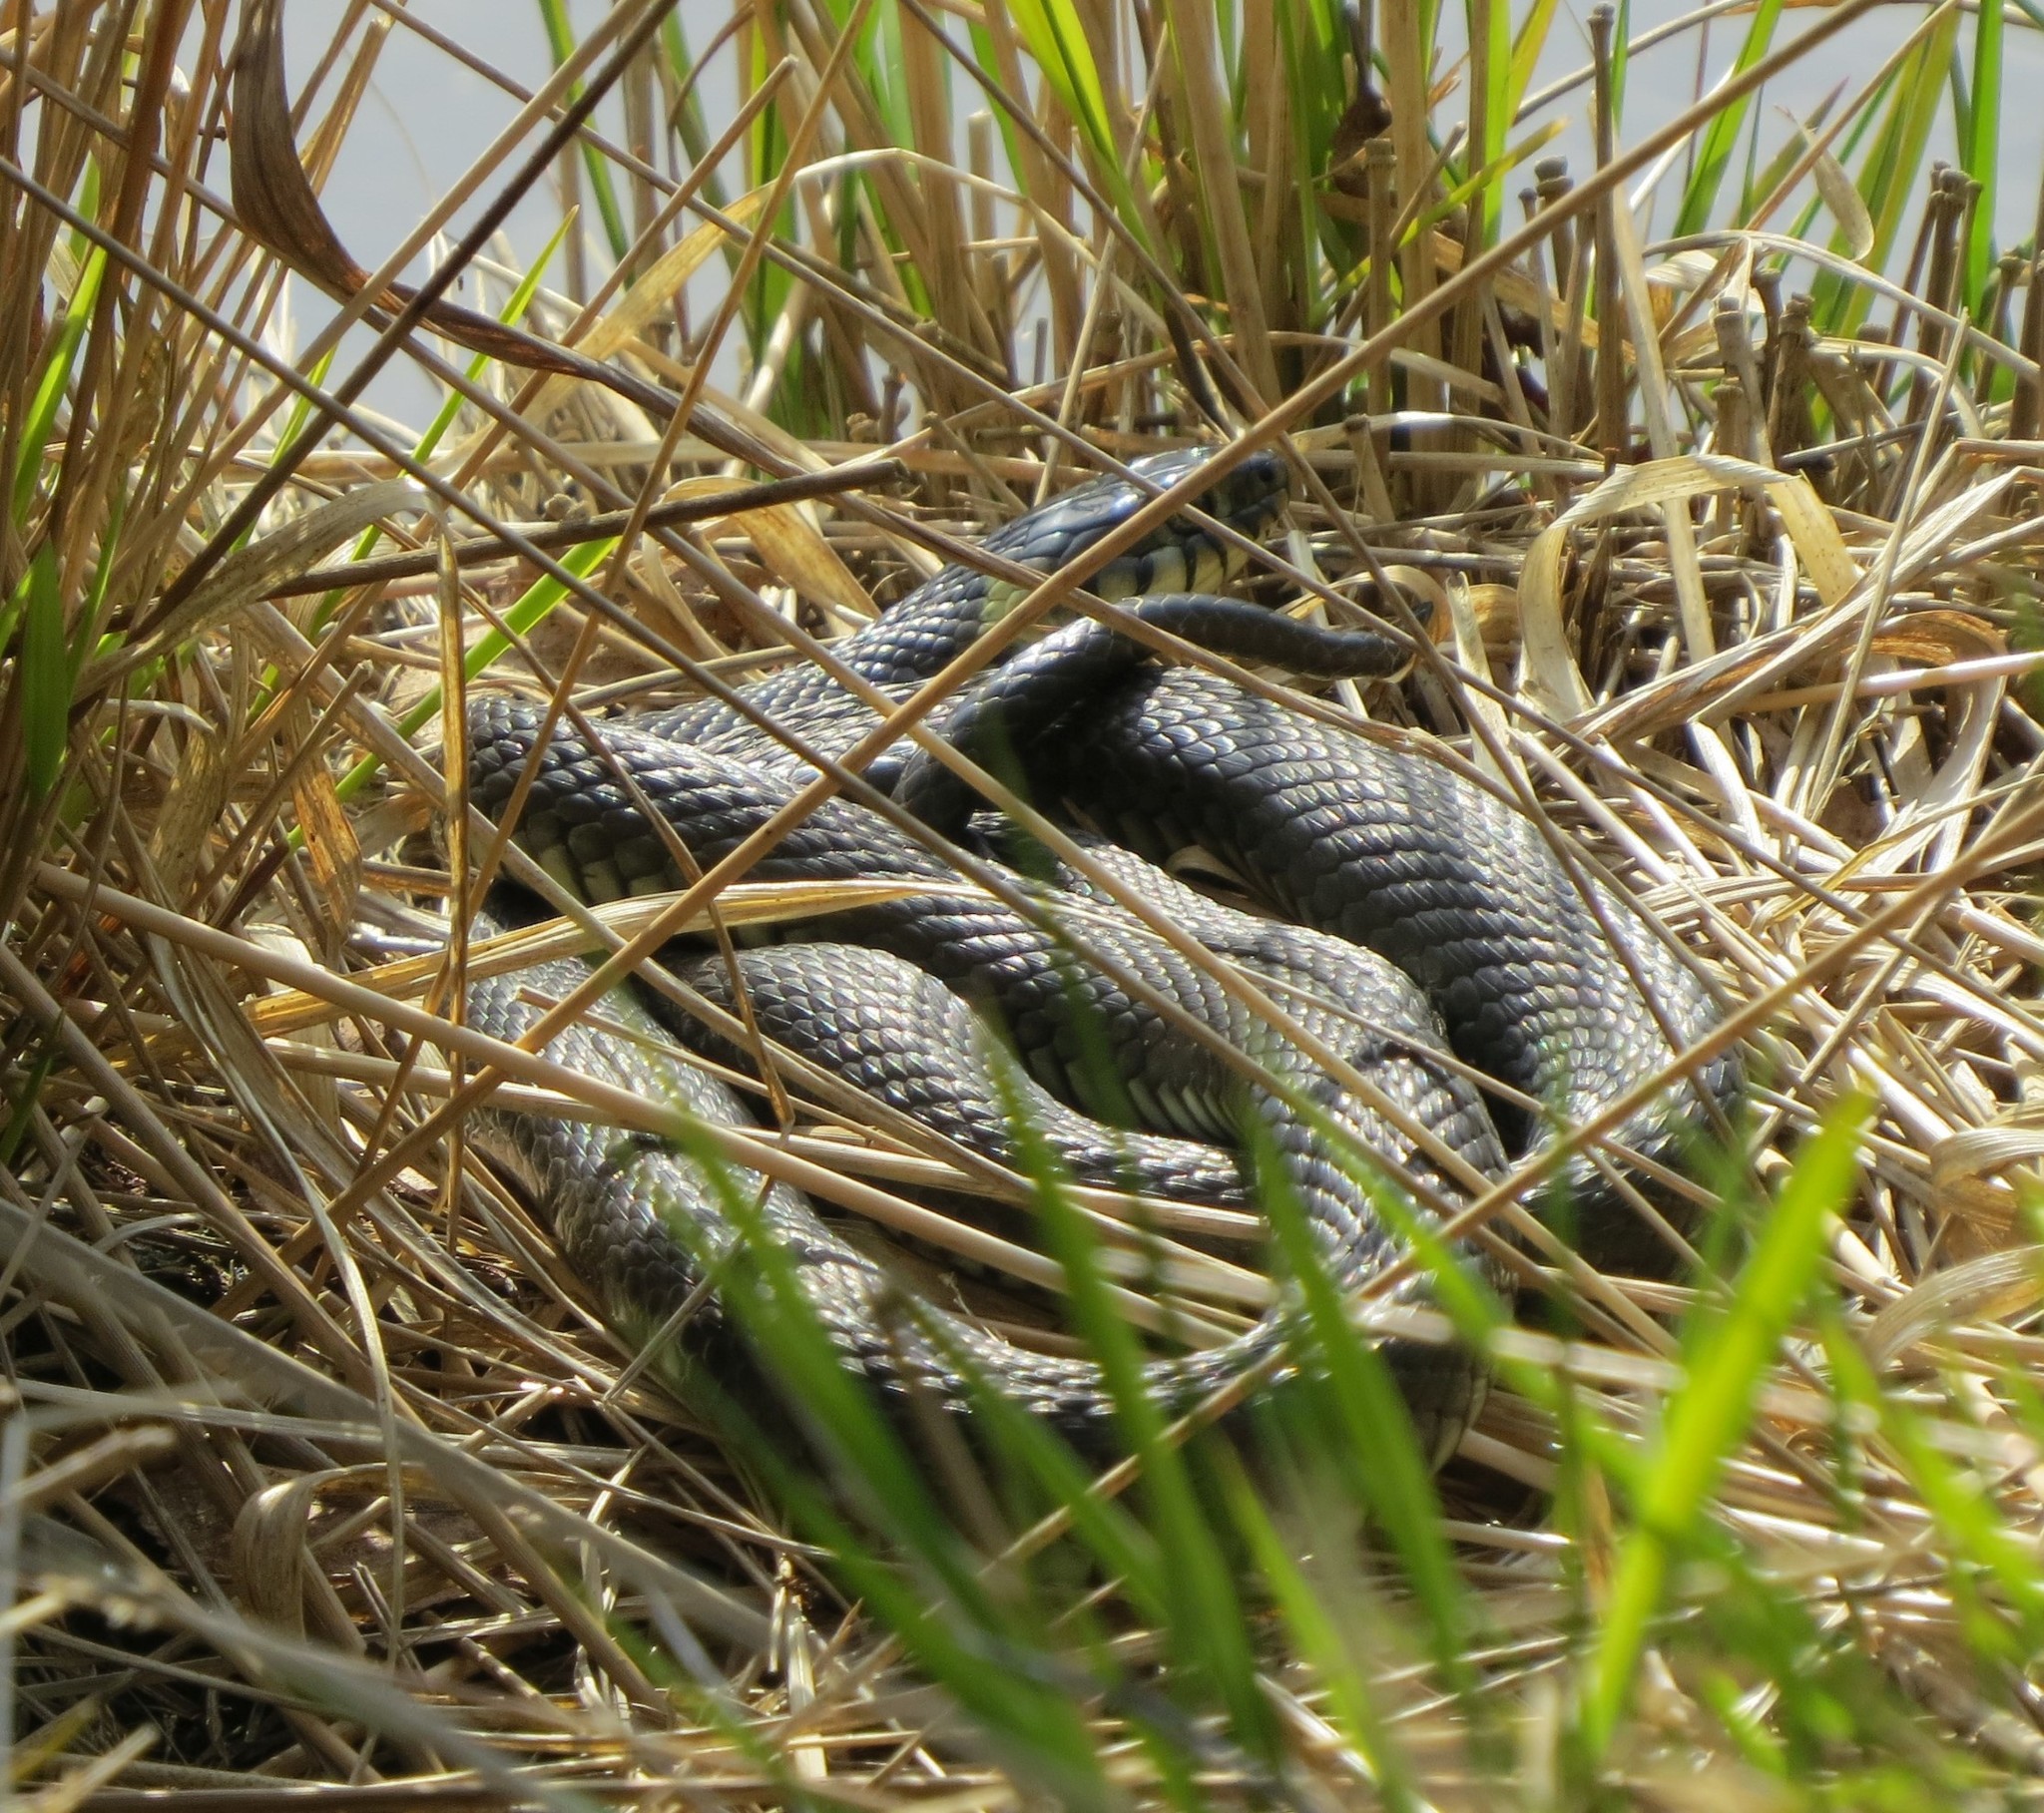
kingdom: Animalia
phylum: Chordata
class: Squamata
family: Colubridae
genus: Natrix
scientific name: Natrix natrix
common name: Grass snake
